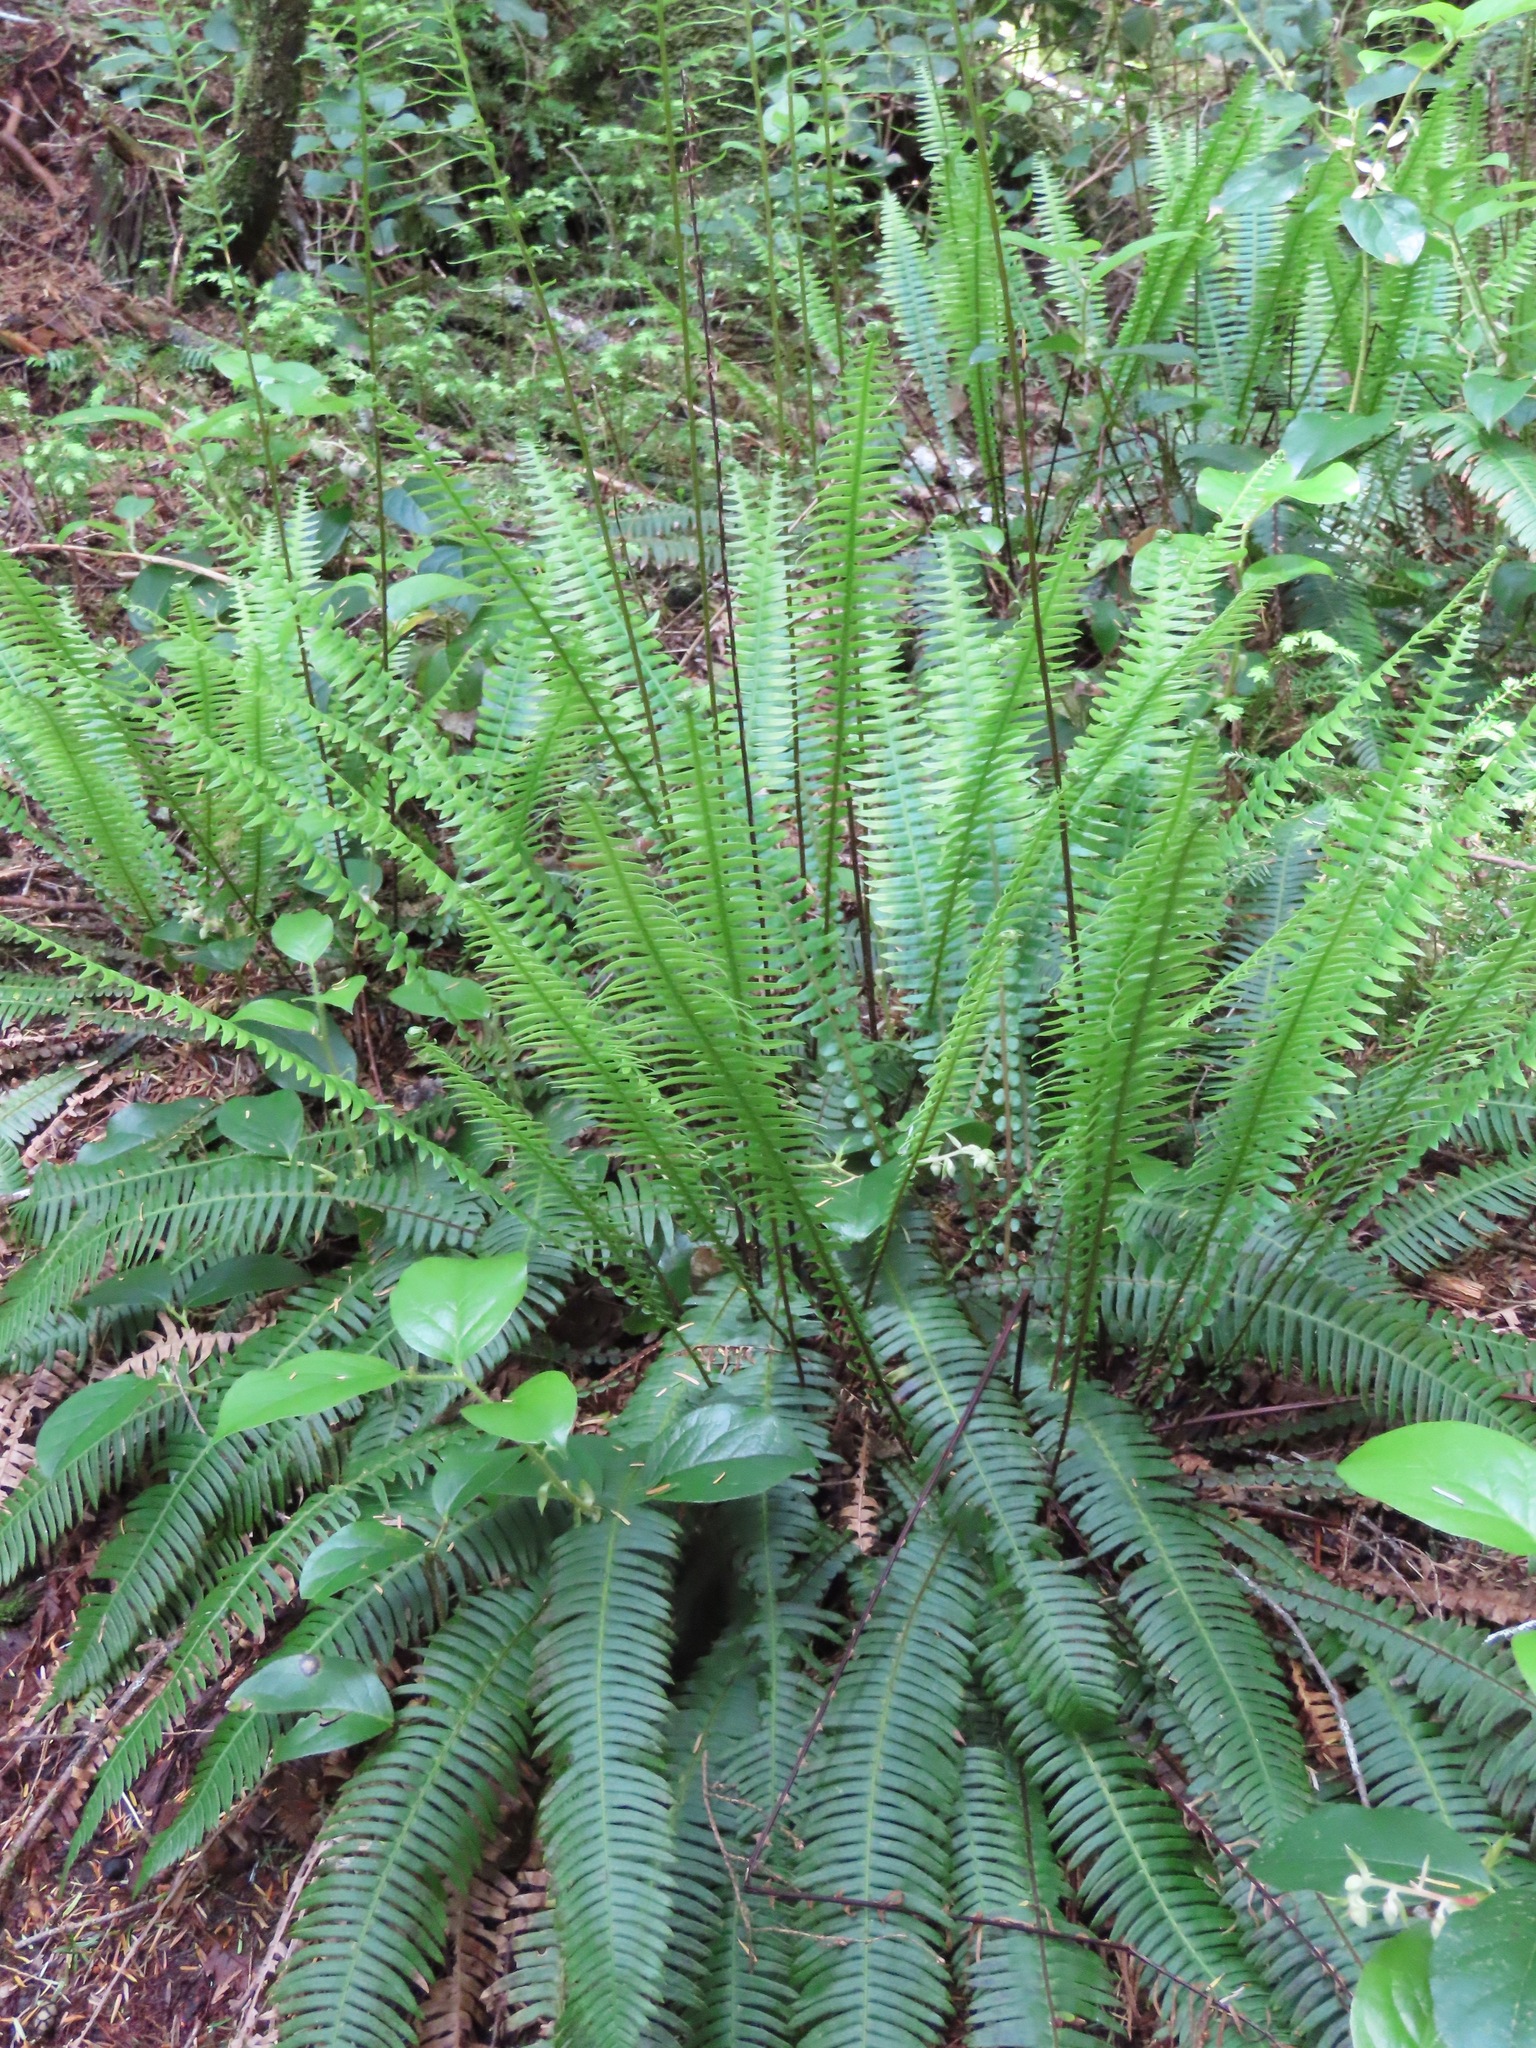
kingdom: Plantae
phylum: Tracheophyta
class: Polypodiopsida
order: Polypodiales
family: Blechnaceae
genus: Struthiopteris
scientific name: Struthiopteris spicant
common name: Deer fern
